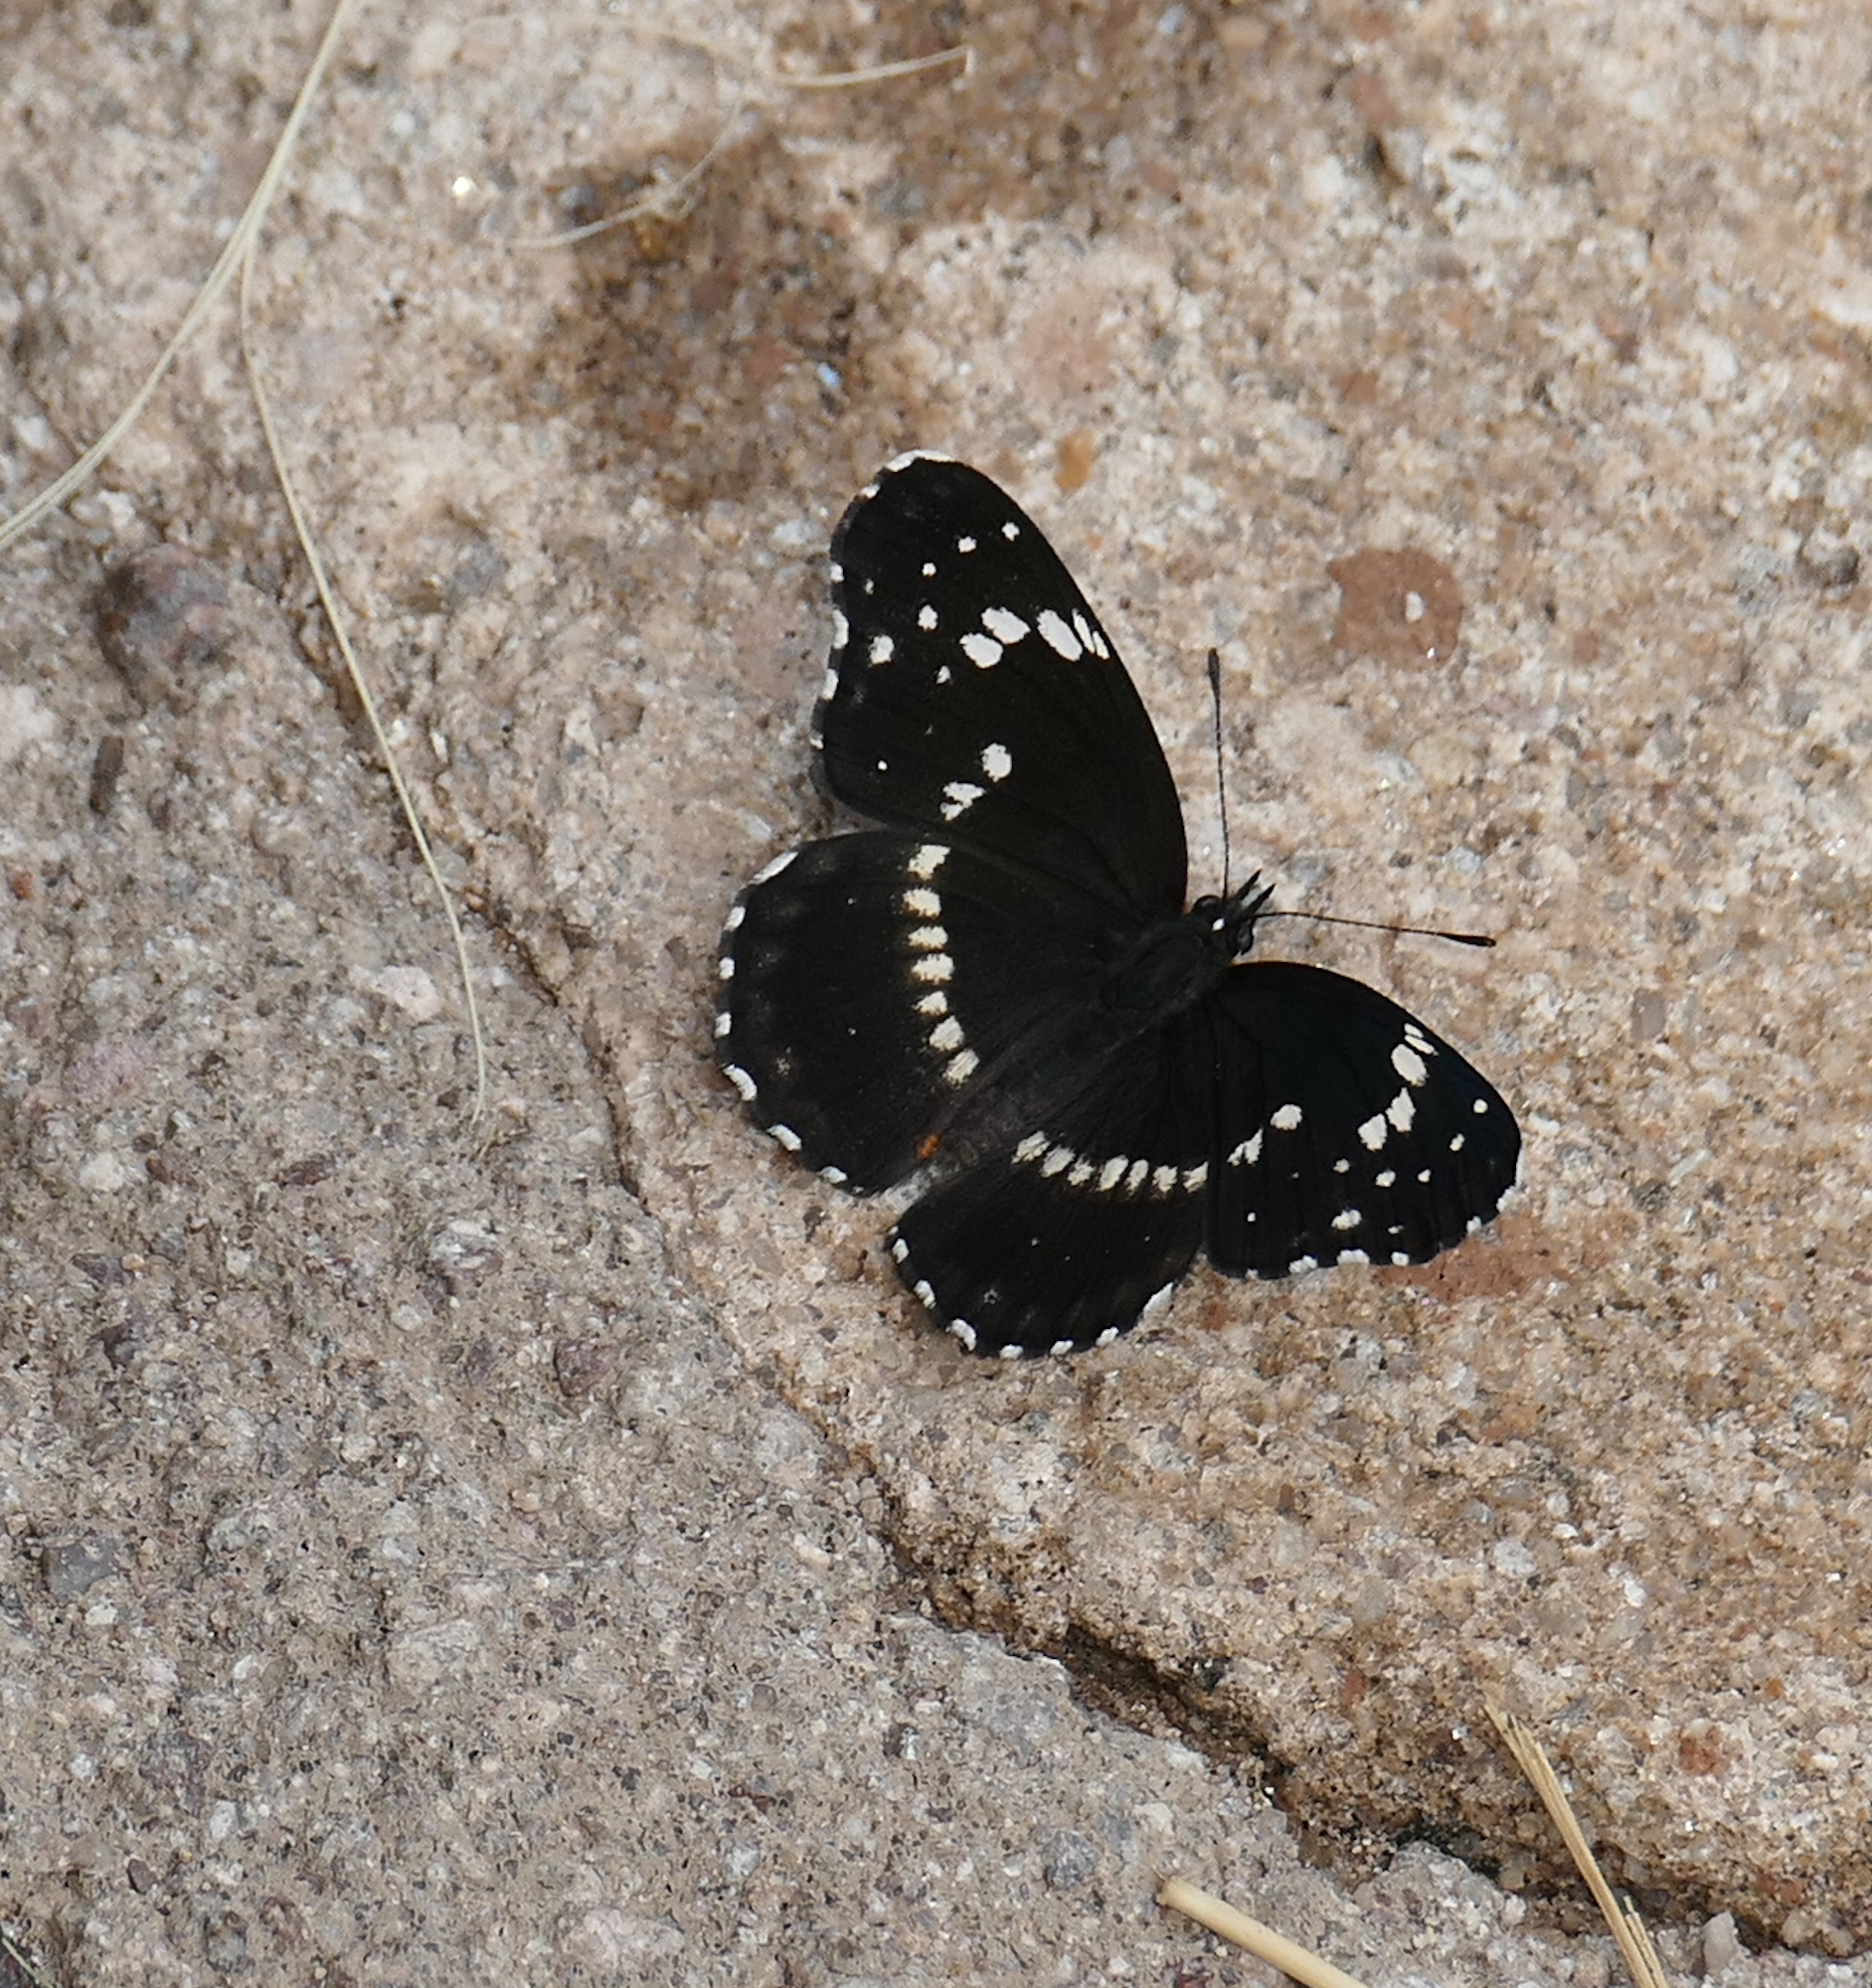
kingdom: Animalia
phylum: Arthropoda
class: Insecta
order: Lepidoptera
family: Nymphalidae
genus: Chlosyne
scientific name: Chlosyne lacinia
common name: Bordered patch
